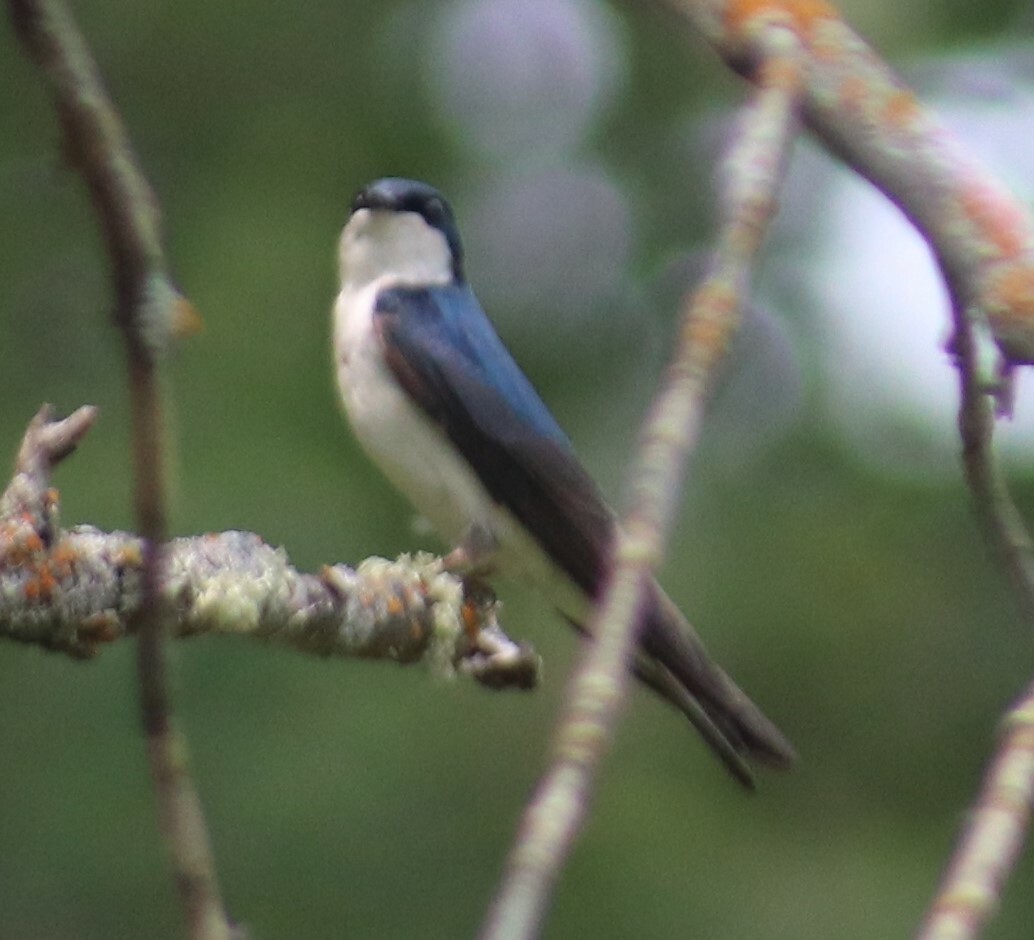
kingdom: Animalia
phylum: Chordata
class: Aves
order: Passeriformes
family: Hirundinidae
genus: Tachycineta
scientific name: Tachycineta bicolor
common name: Tree swallow
